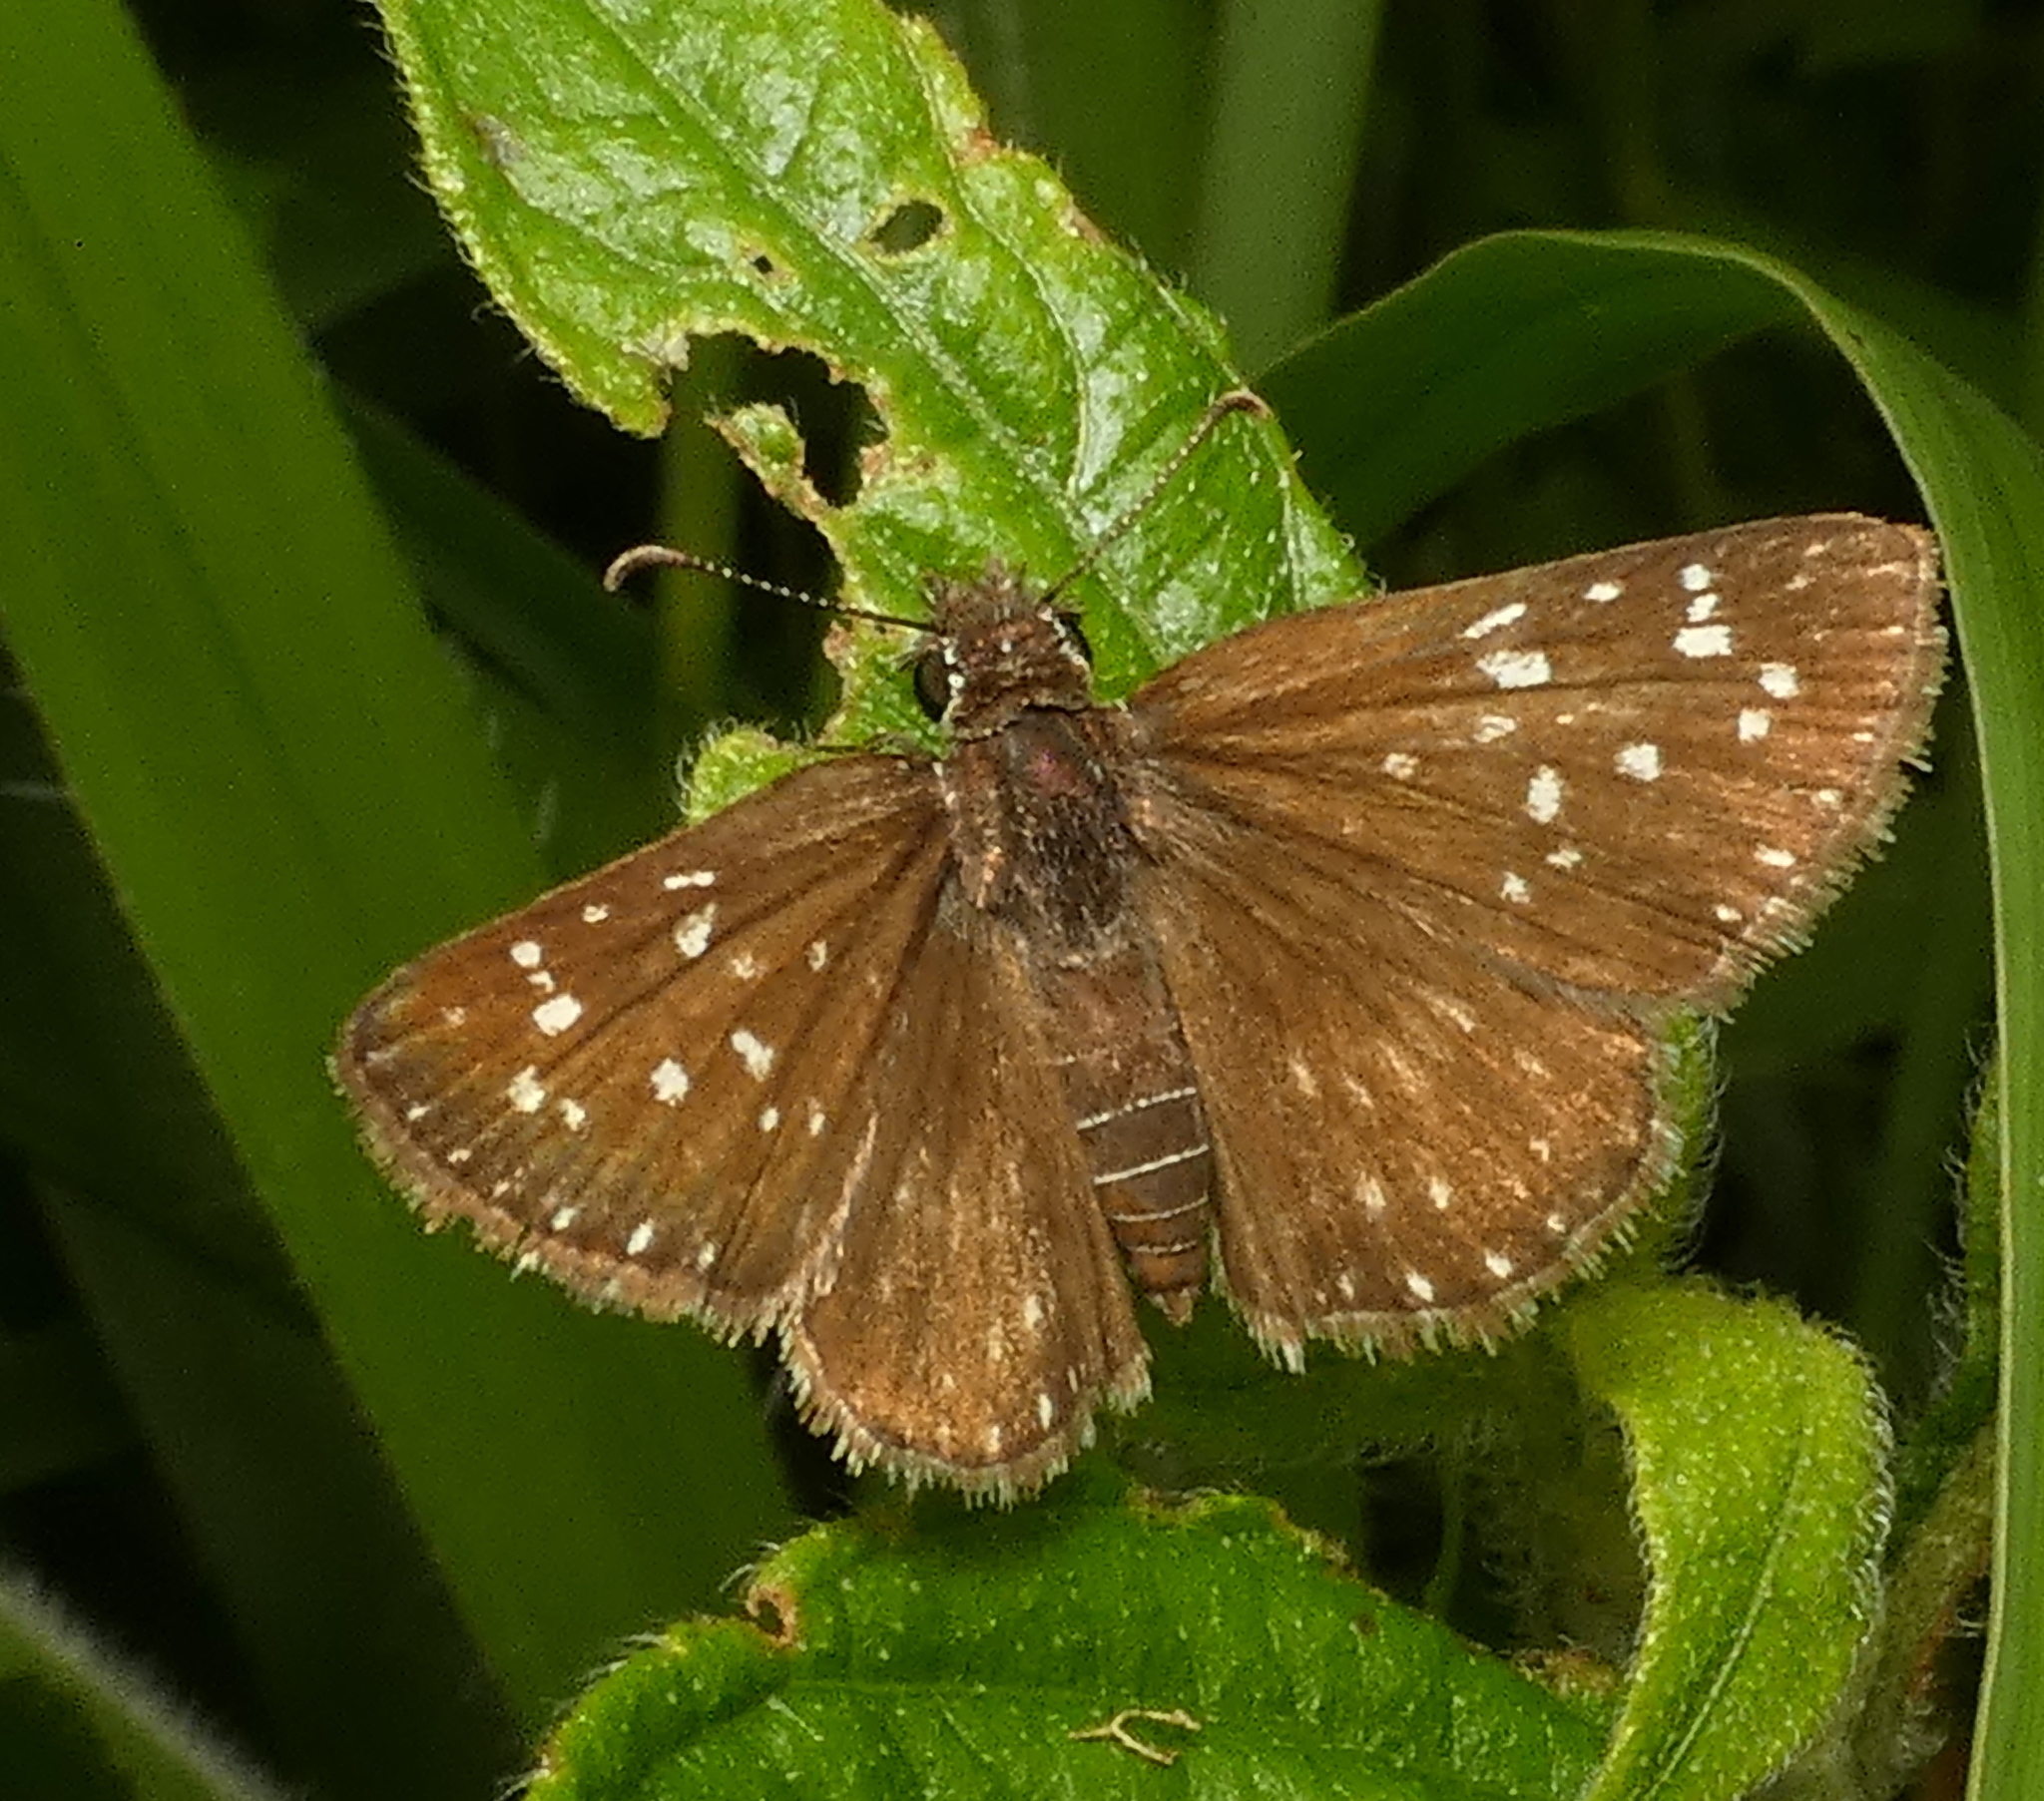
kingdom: Animalia
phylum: Arthropoda
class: Insecta
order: Lepidoptera
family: Hesperiidae
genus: Pyrgus
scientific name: Pyrgus oileus
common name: Tropical checkered-skipper
